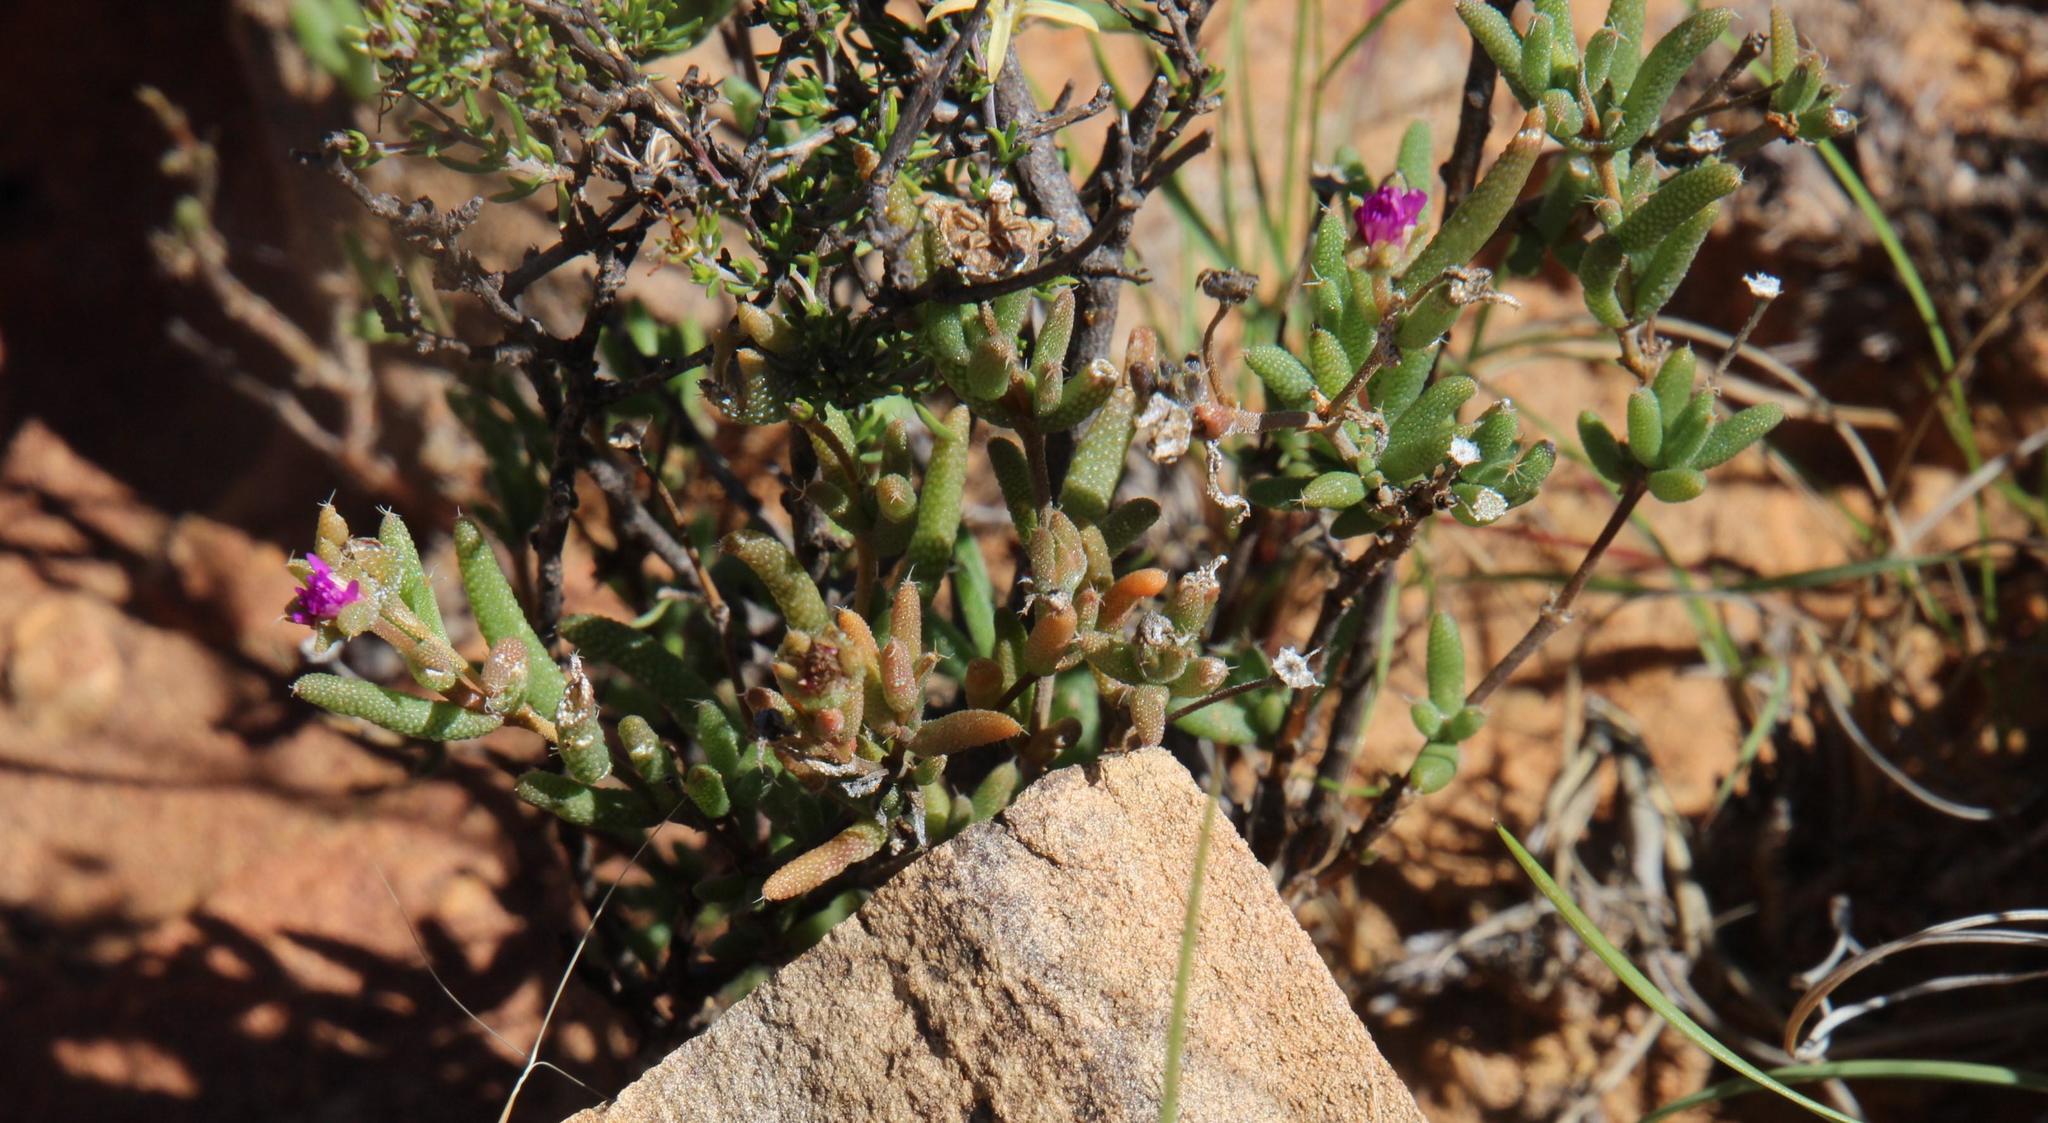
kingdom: Plantae
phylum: Tracheophyta
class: Magnoliopsida
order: Caryophyllales
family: Aizoaceae
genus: Trichodiadema
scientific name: Trichodiadema rogersiae
